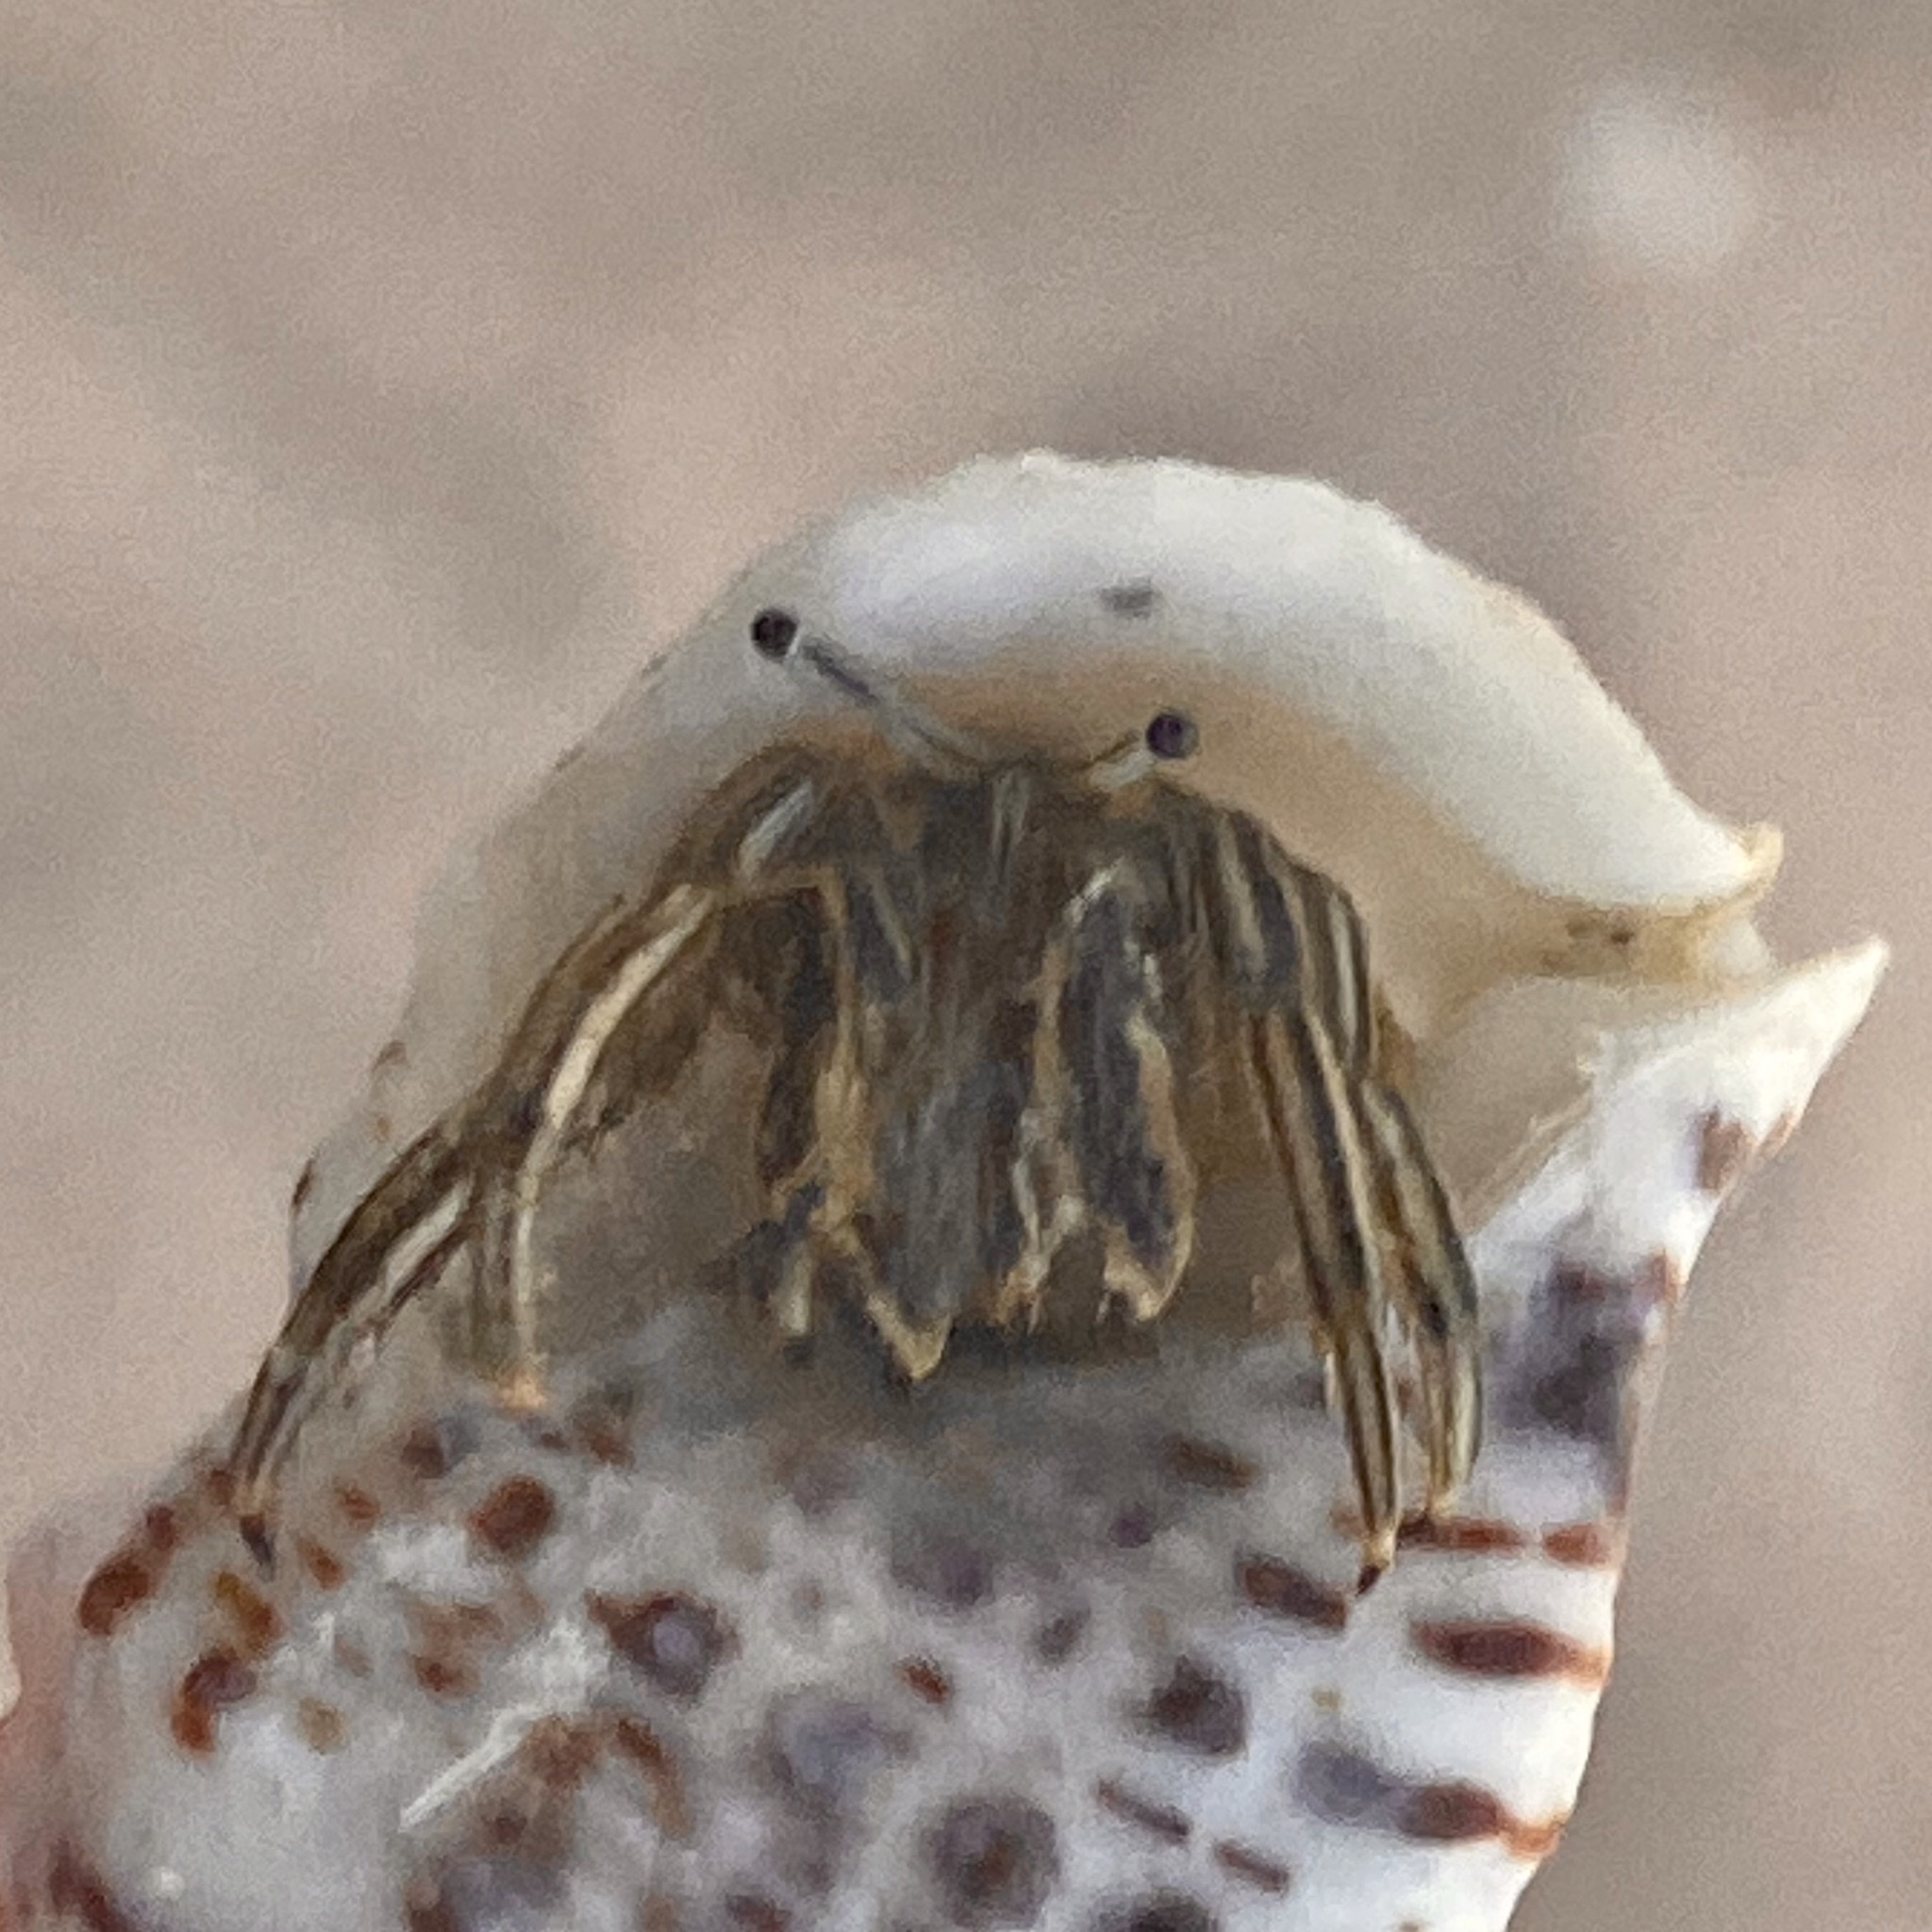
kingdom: Animalia
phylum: Arthropoda
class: Malacostraca
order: Decapoda
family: Diogenidae
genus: Clibanarius
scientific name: Clibanarius
